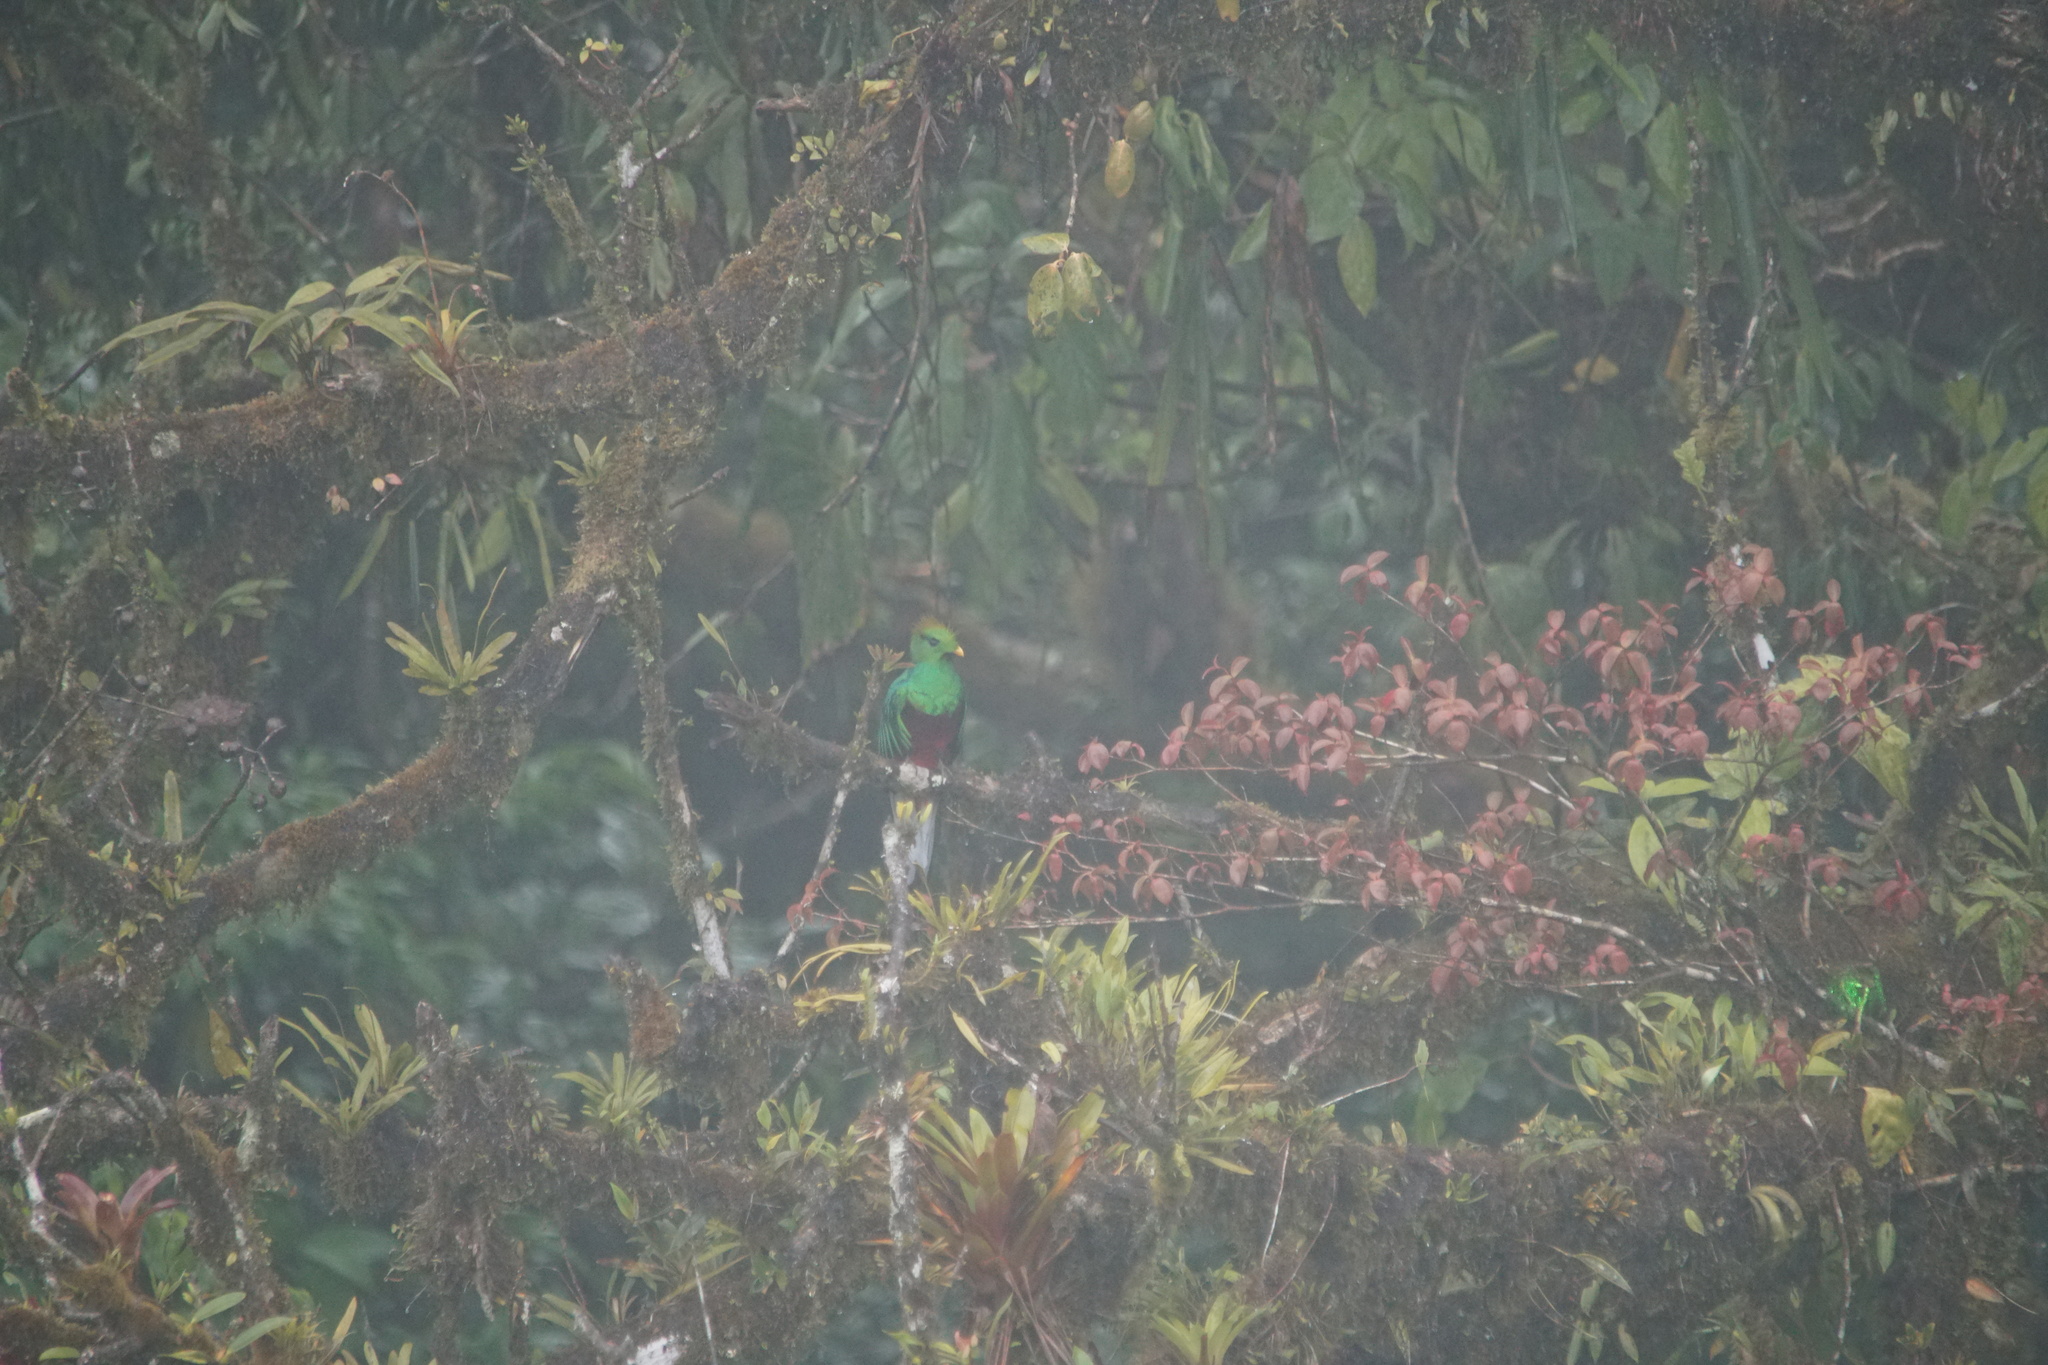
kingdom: Animalia
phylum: Chordata
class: Aves
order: Trogoniformes
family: Trogonidae
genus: Pharomachrus
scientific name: Pharomachrus mocinno
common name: Resplendent quetzal
